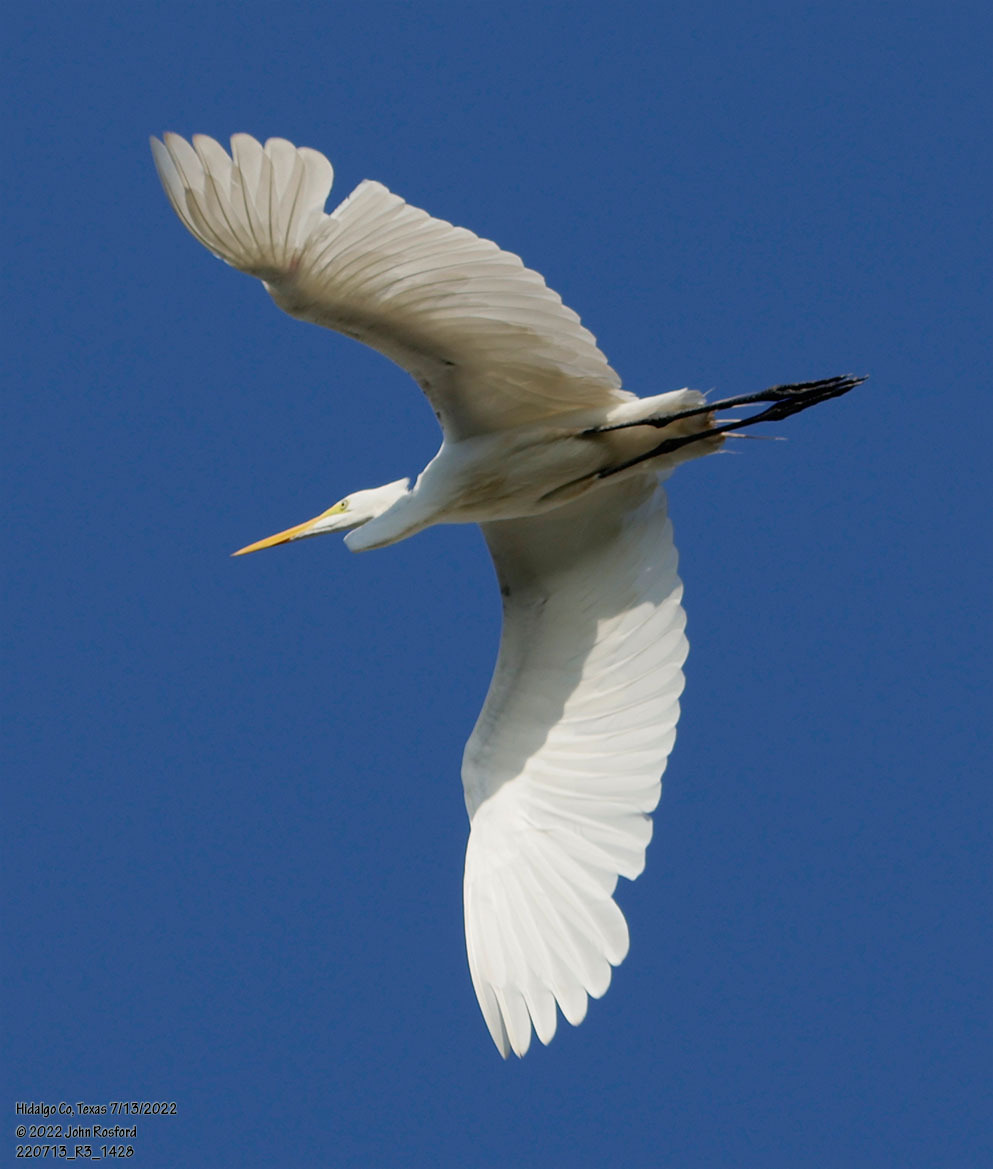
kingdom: Animalia
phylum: Chordata
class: Aves
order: Pelecaniformes
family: Ardeidae
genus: Ardea
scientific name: Ardea alba
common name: Great egret
